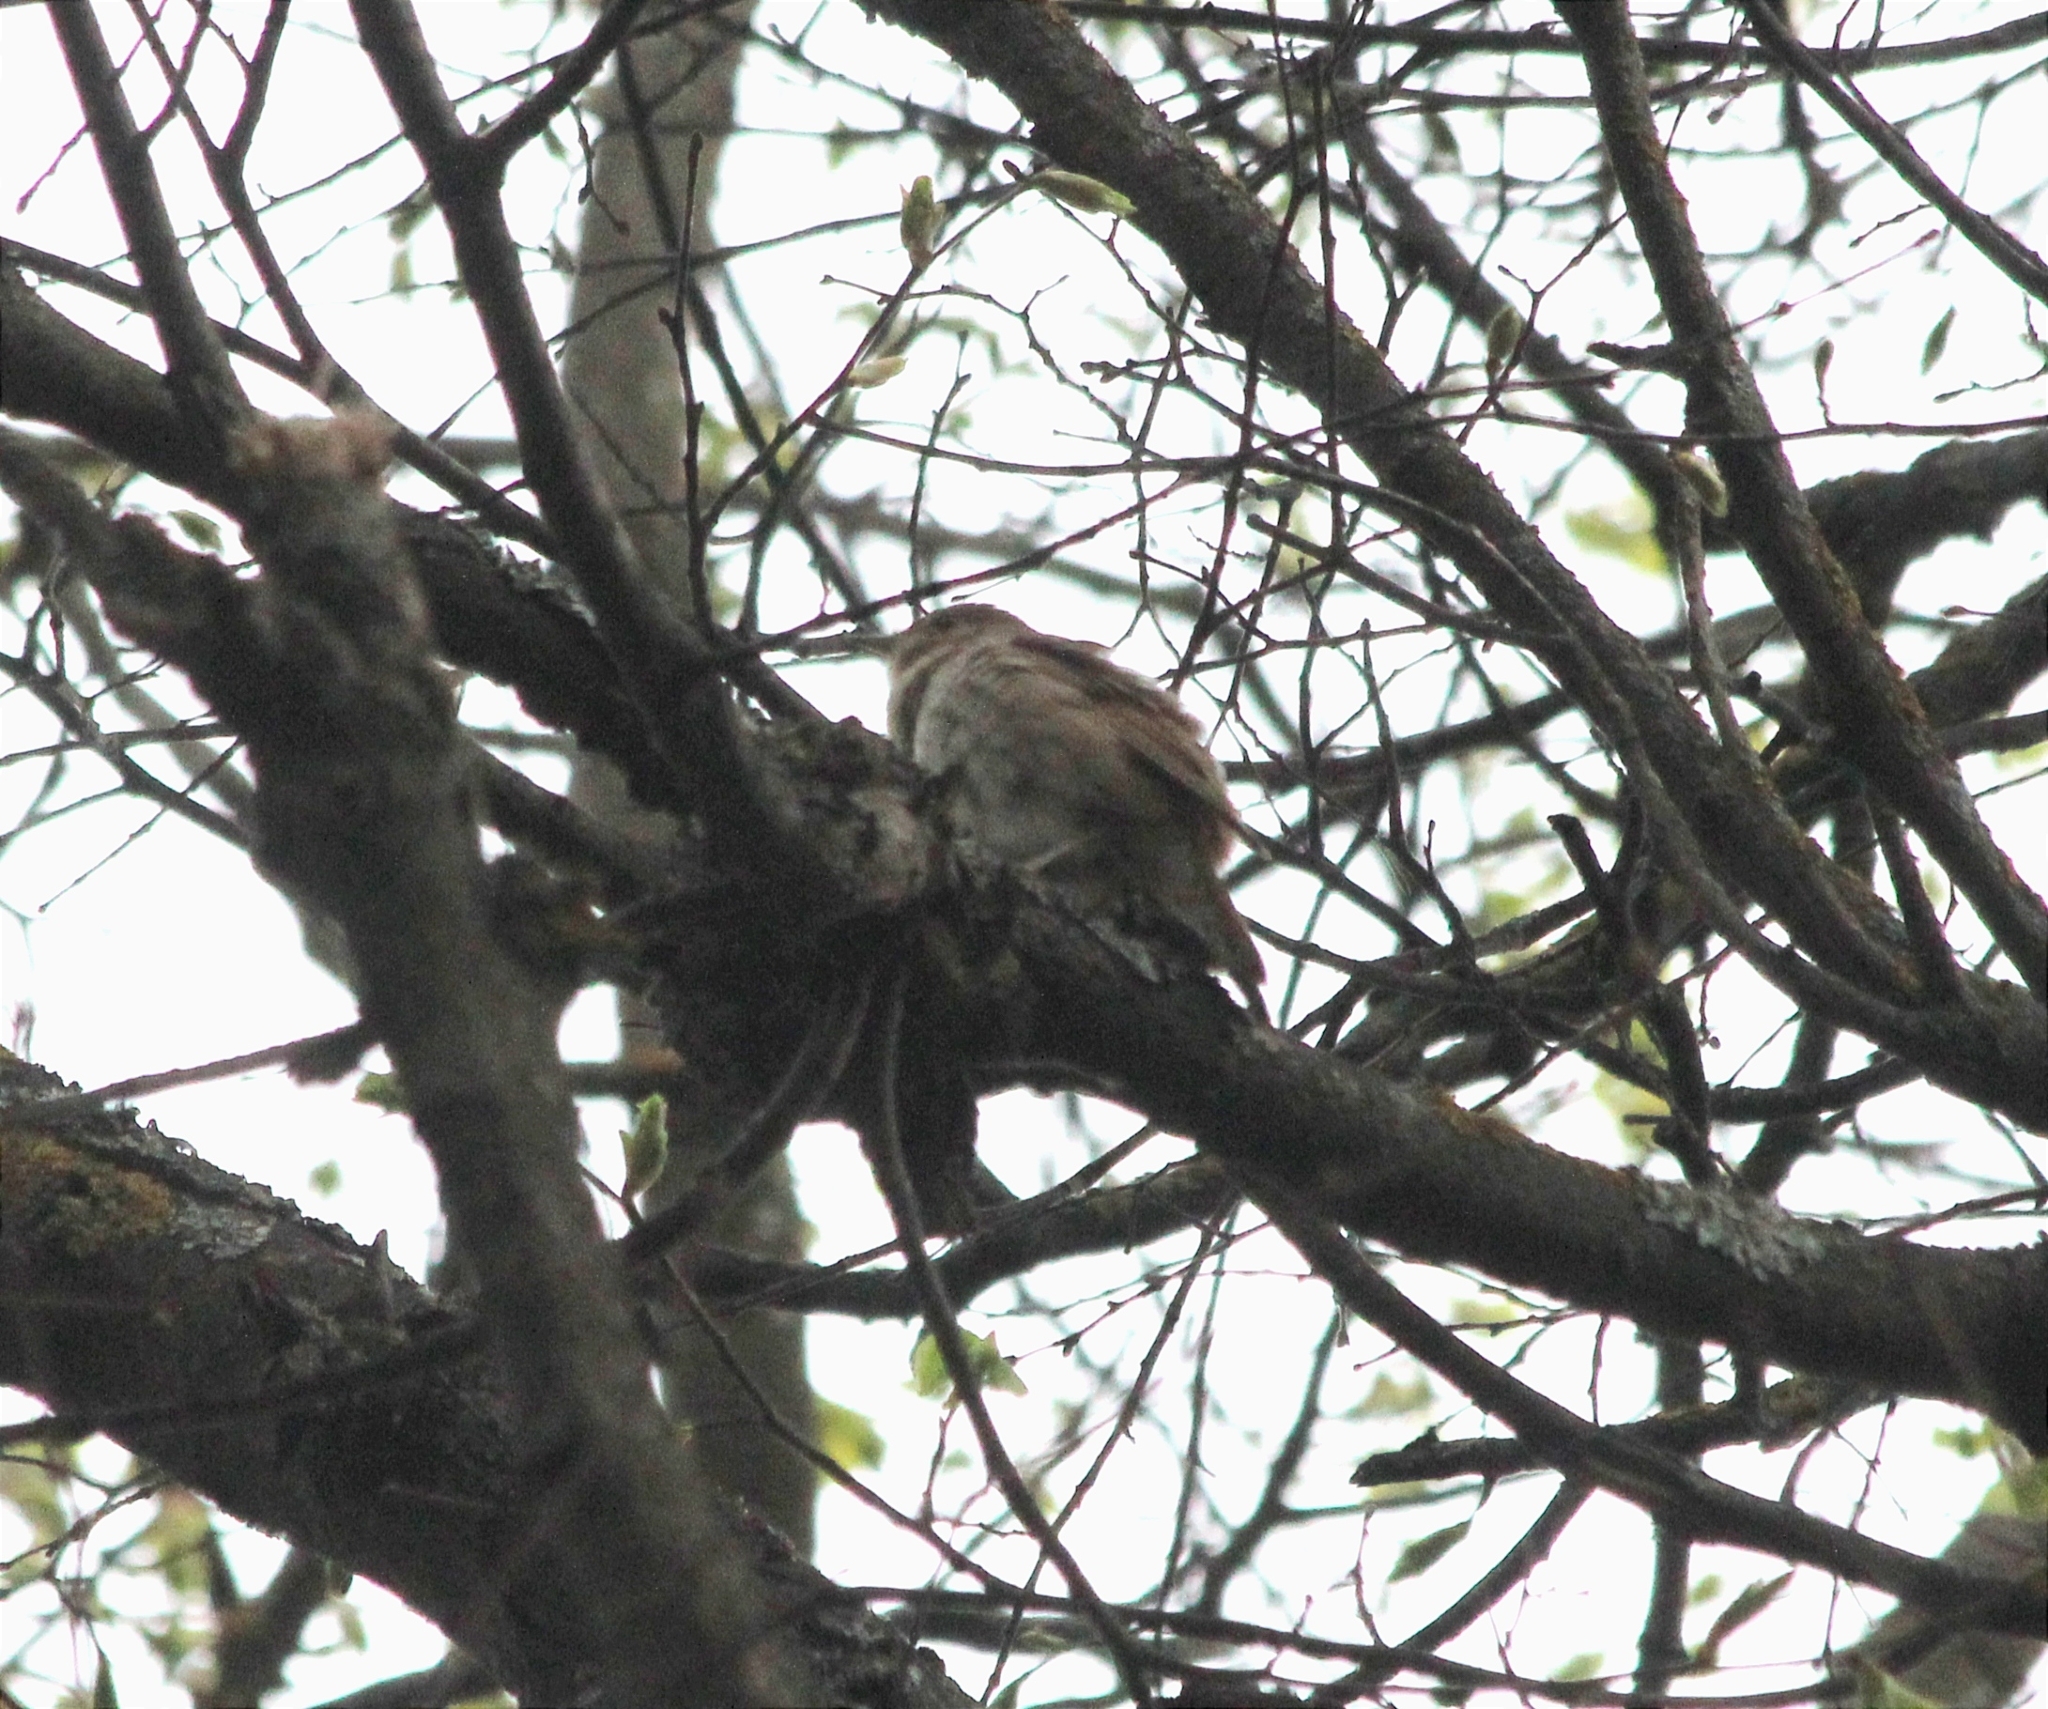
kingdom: Animalia
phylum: Chordata
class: Aves
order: Passeriformes
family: Muscicapidae
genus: Luscinia
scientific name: Luscinia luscinia
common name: Thrush nightingale
